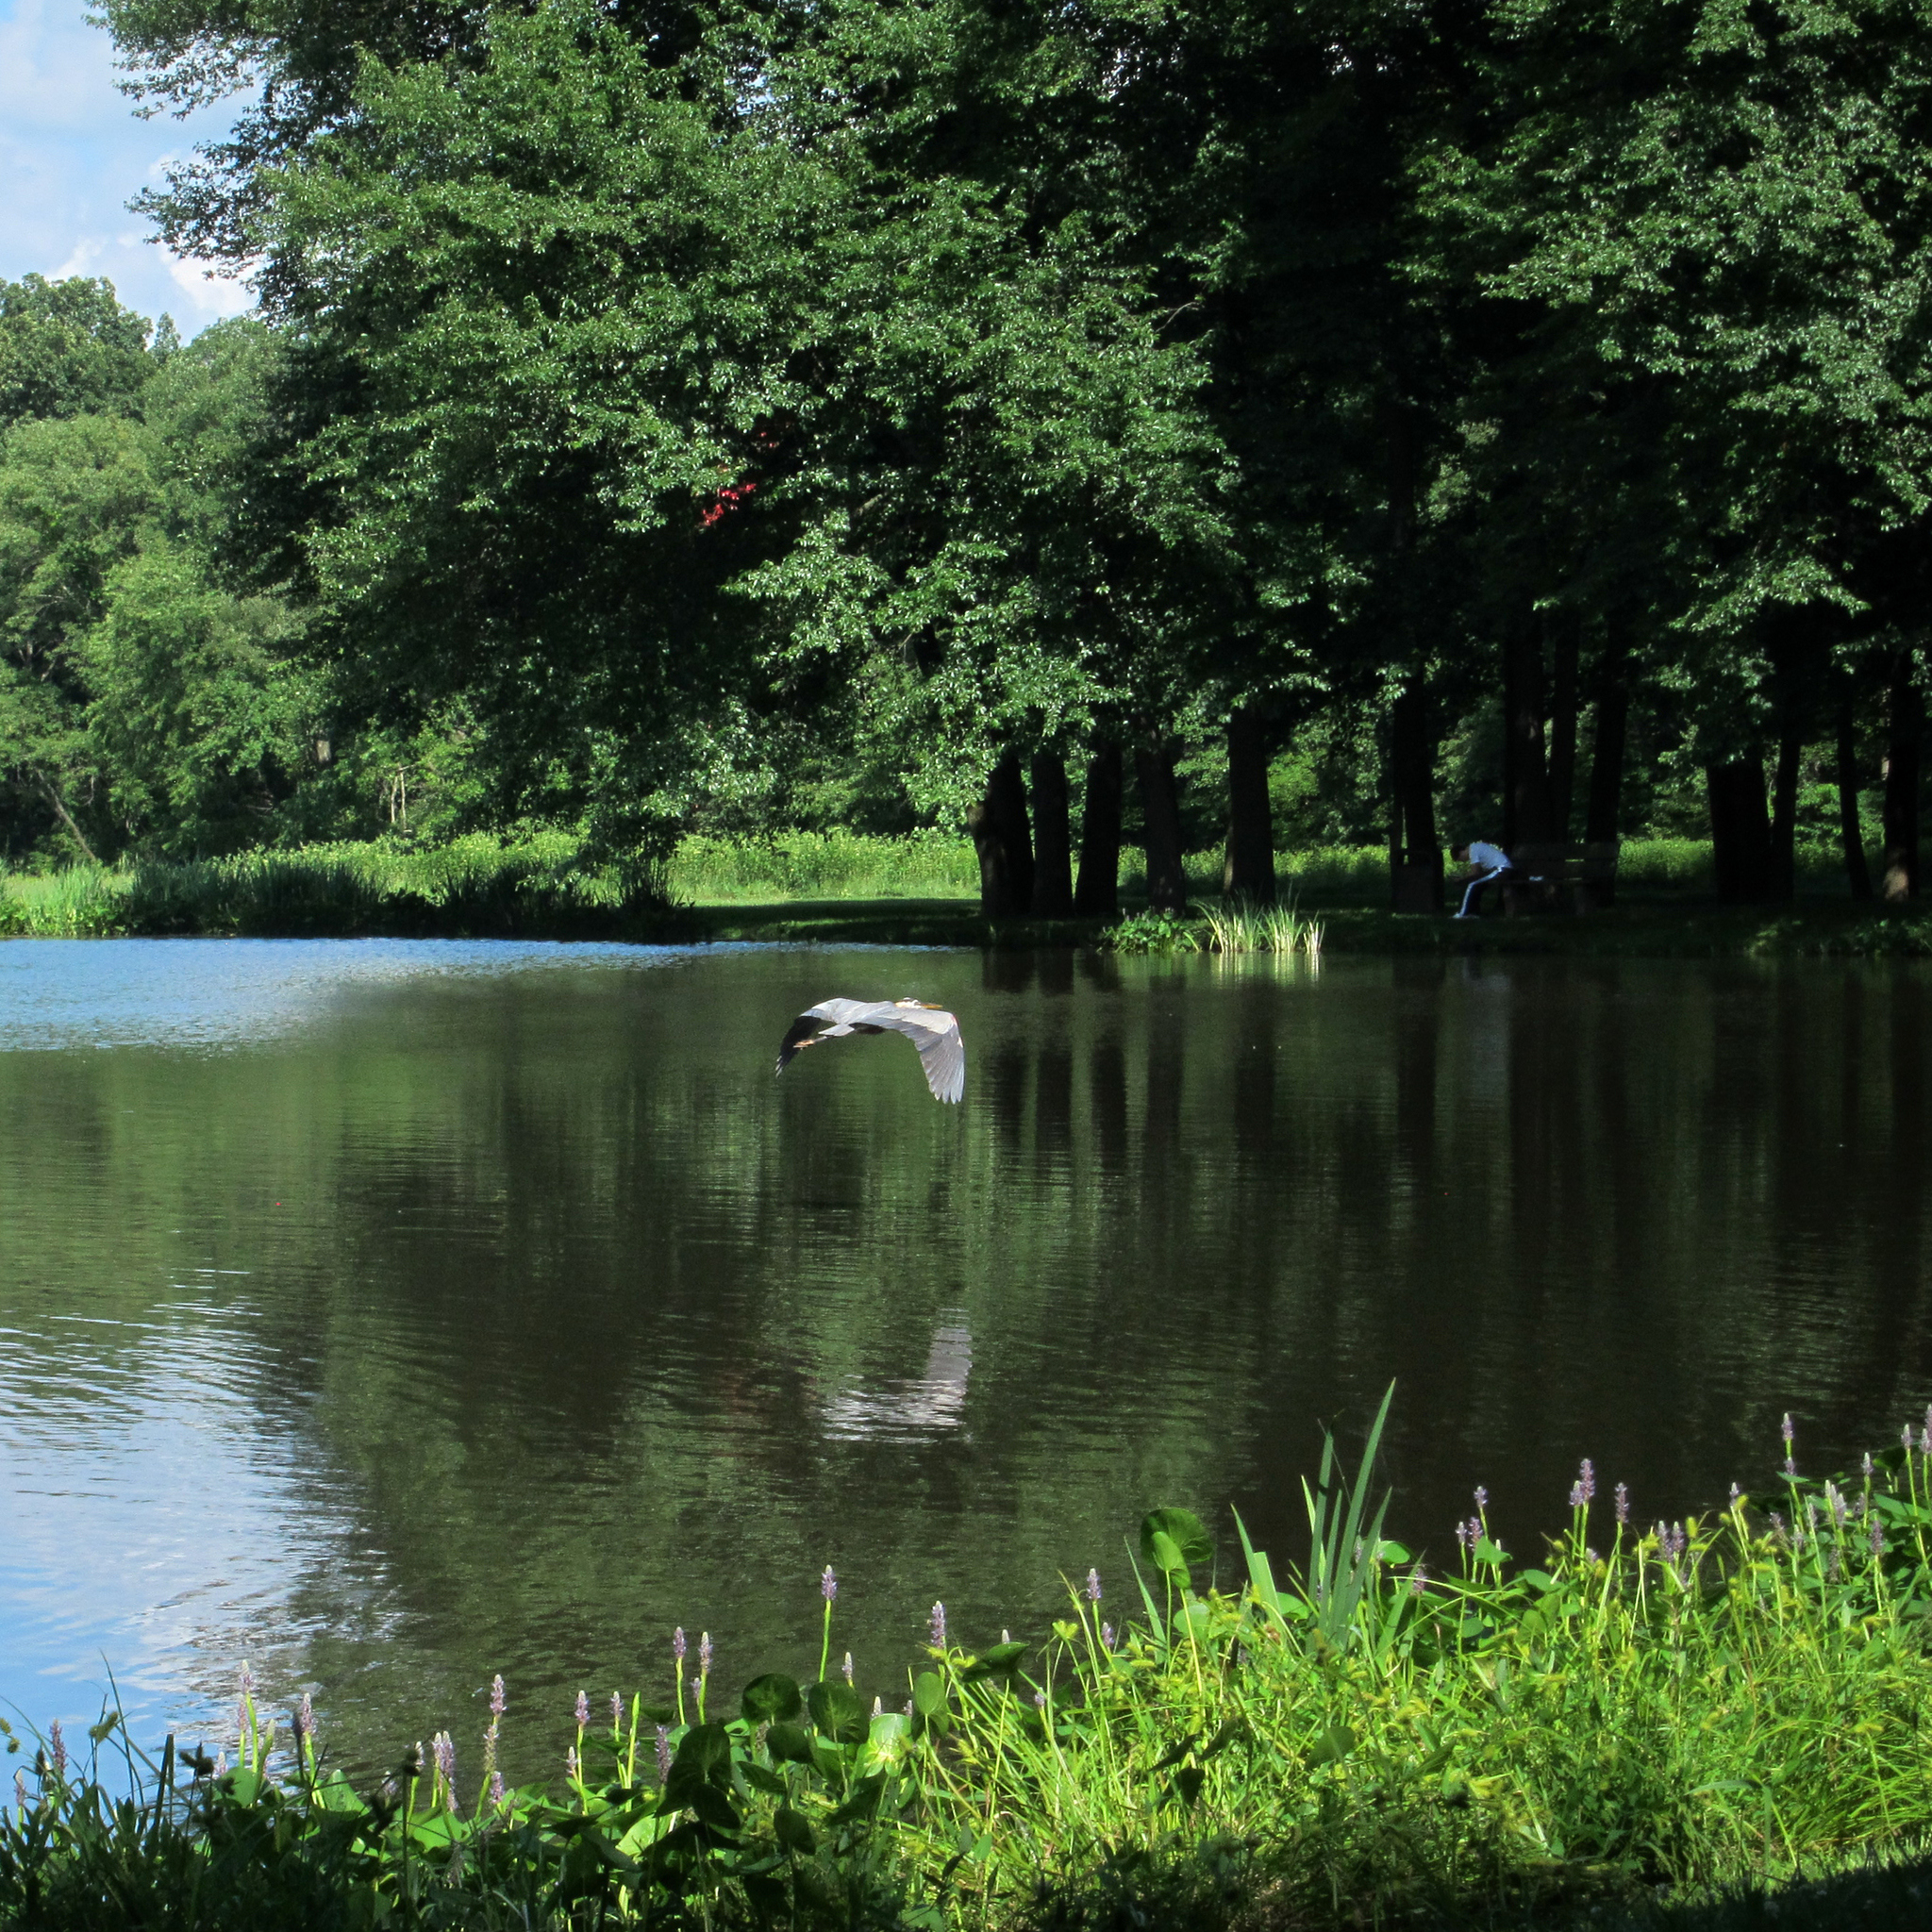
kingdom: Animalia
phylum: Chordata
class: Aves
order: Pelecaniformes
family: Ardeidae
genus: Ardea
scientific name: Ardea herodias
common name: Great blue heron
